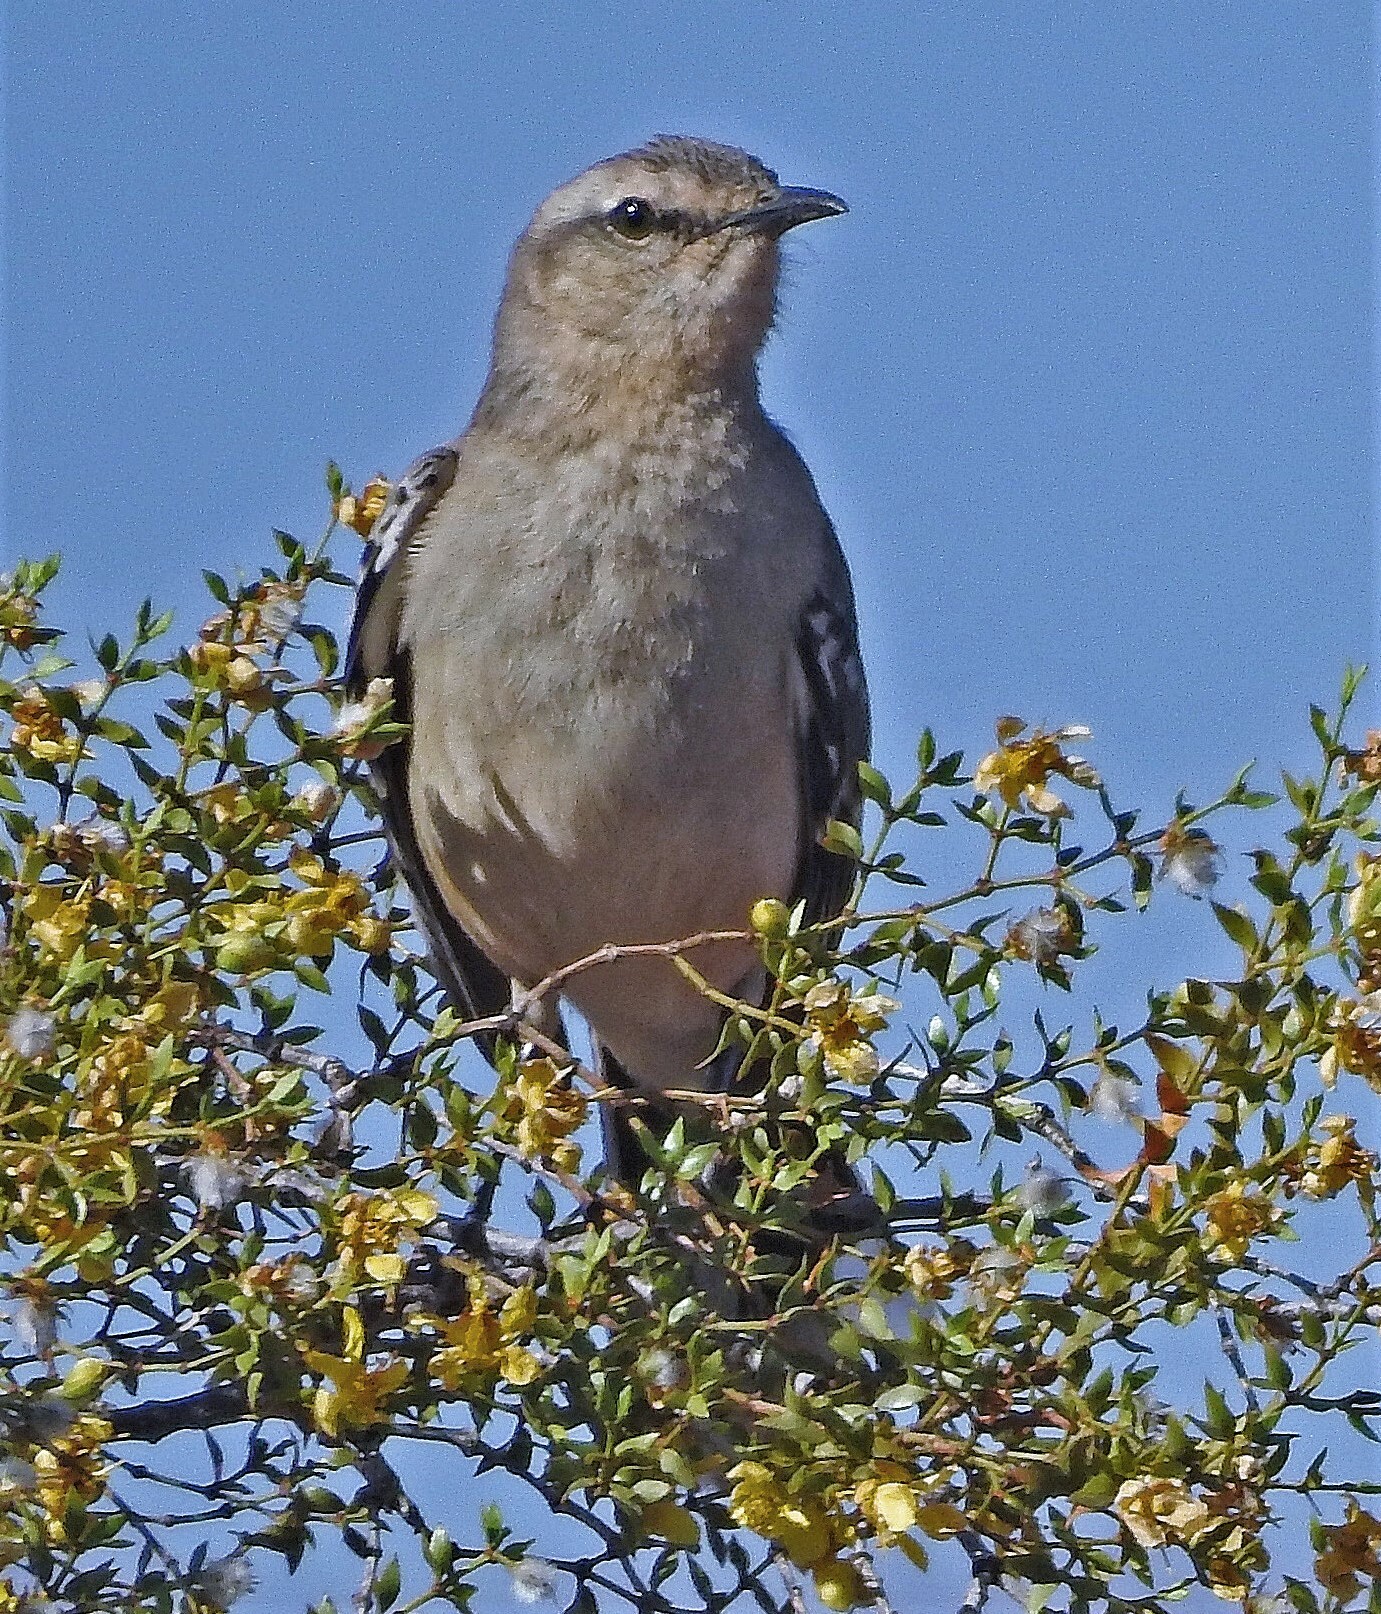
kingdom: Animalia
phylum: Chordata
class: Aves
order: Passeriformes
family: Mimidae
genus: Mimus
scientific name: Mimus patagonicus
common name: Patagonian mockingbird
